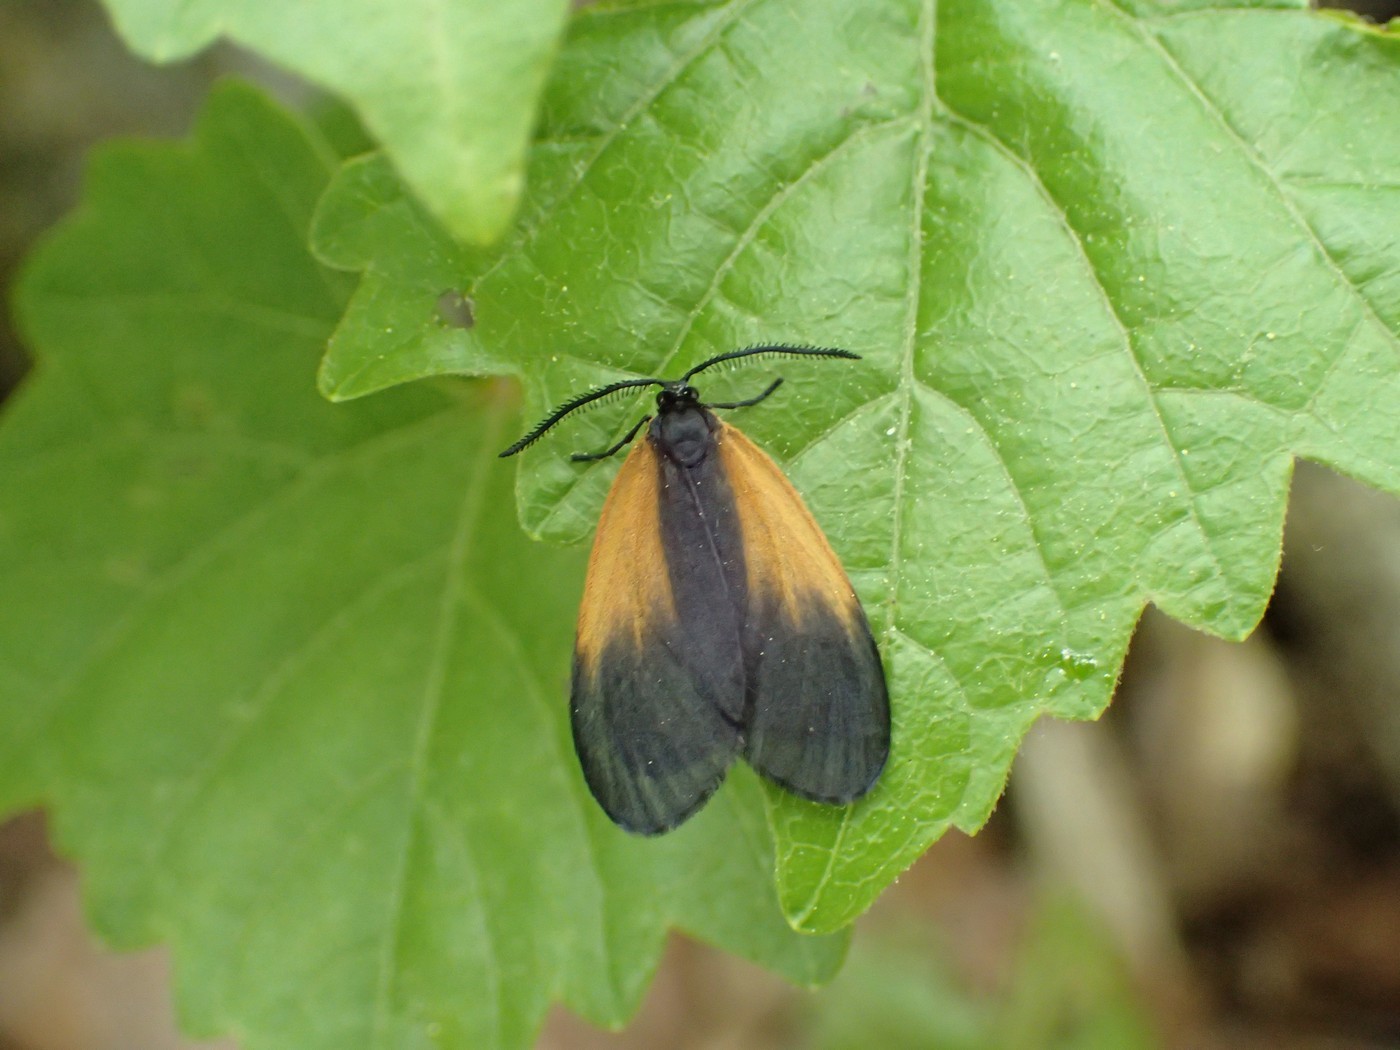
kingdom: Animalia
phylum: Arthropoda
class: Insecta
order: Lepidoptera
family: Zygaenidae
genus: Malthaca
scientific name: Malthaca dimidiata
